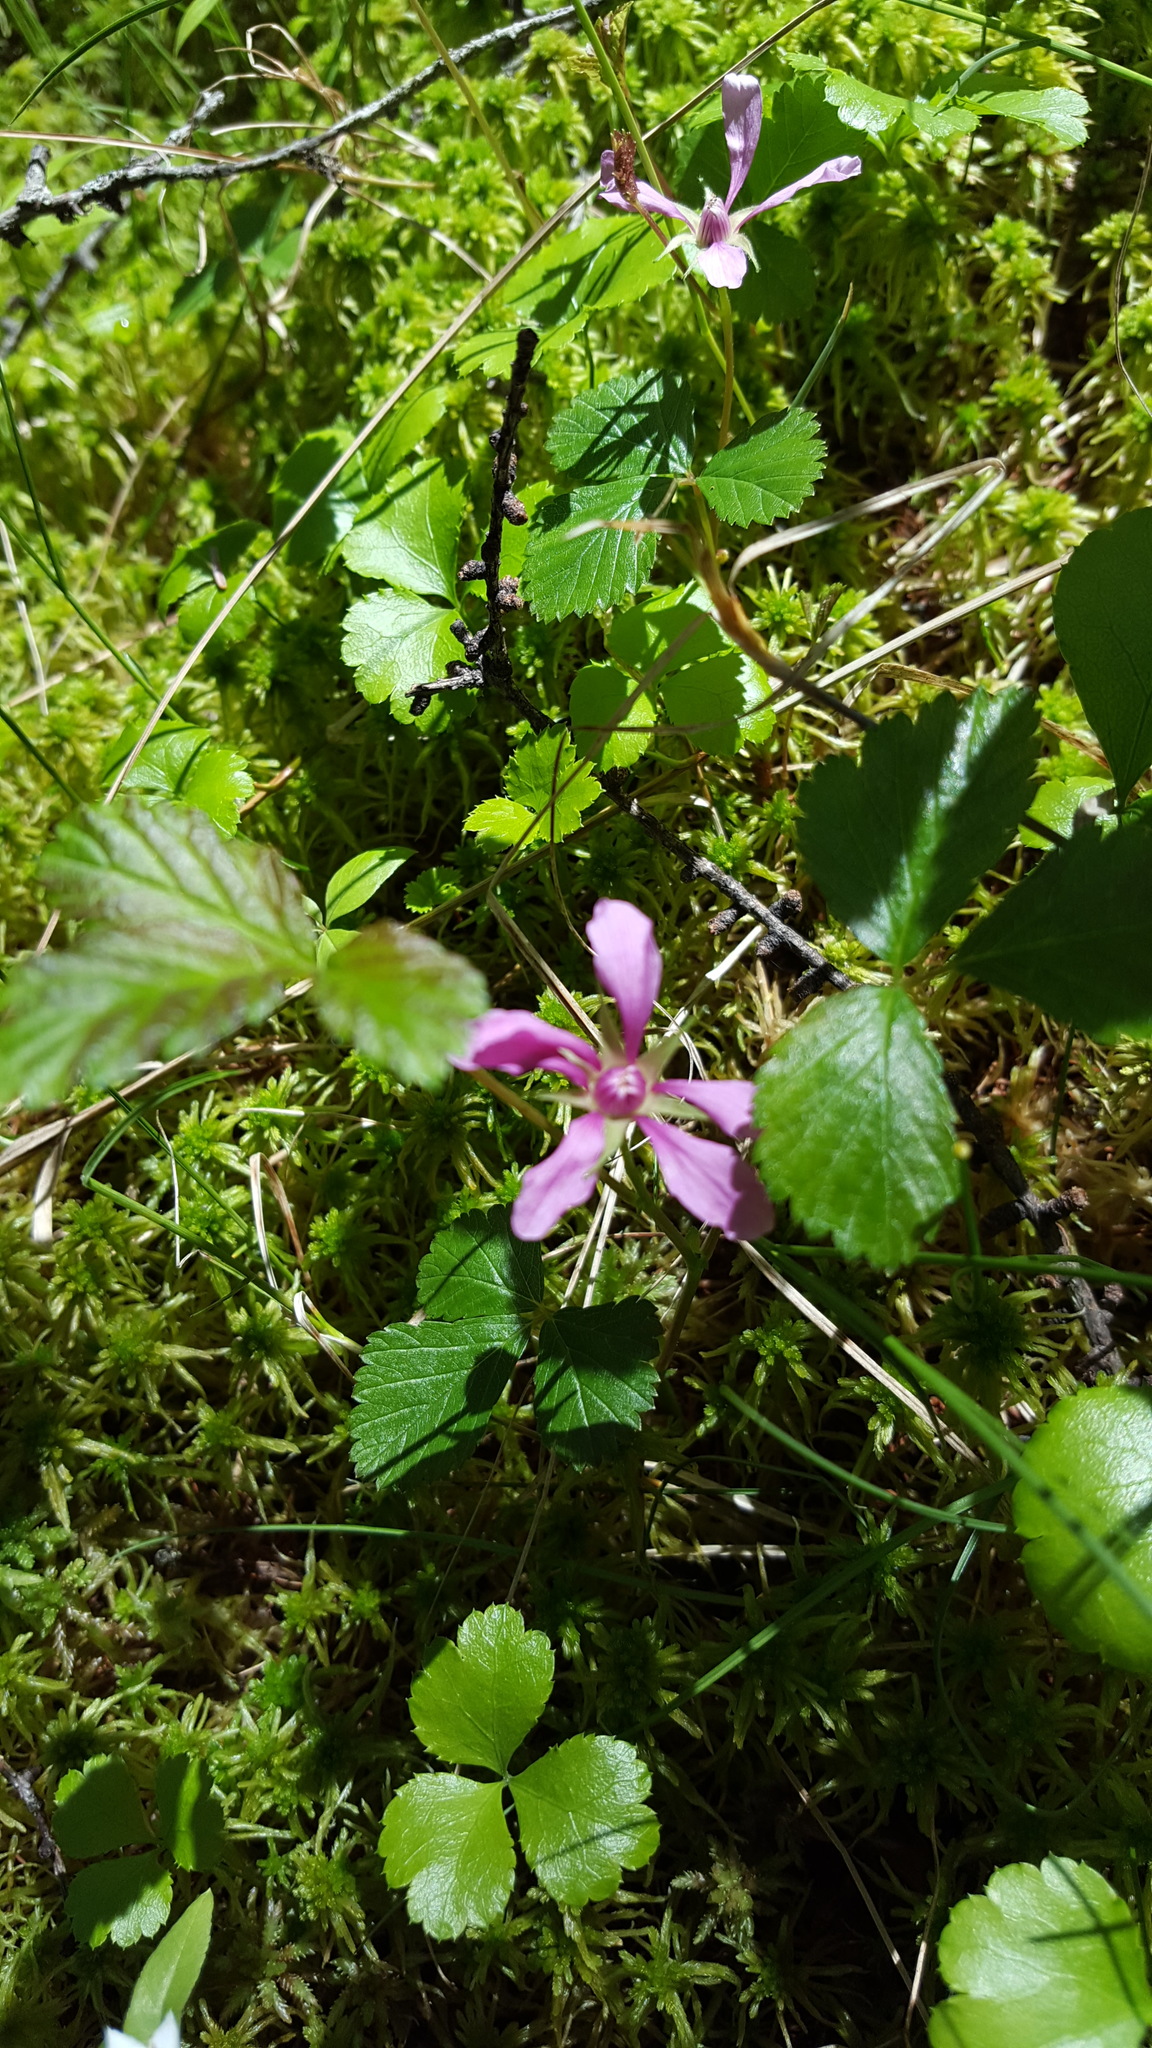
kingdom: Plantae
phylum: Tracheophyta
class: Magnoliopsida
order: Rosales
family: Rosaceae
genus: Rubus
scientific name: Rubus arcticus
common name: Arctic bramble
